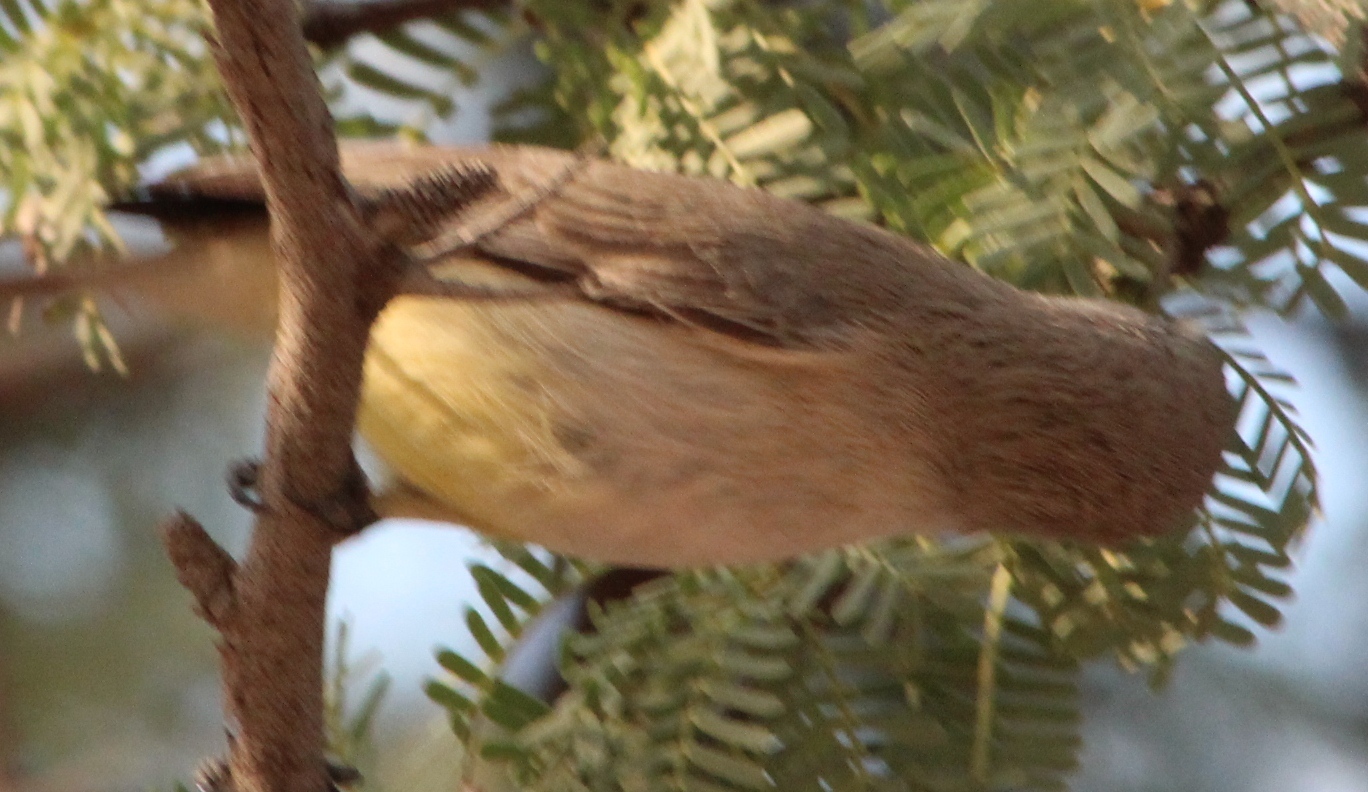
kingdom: Animalia
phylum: Chordata
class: Aves
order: Passeriformes
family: Cisticolidae
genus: Eremomela
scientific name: Eremomela icteropygialis
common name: Yellow-bellied eremomela
